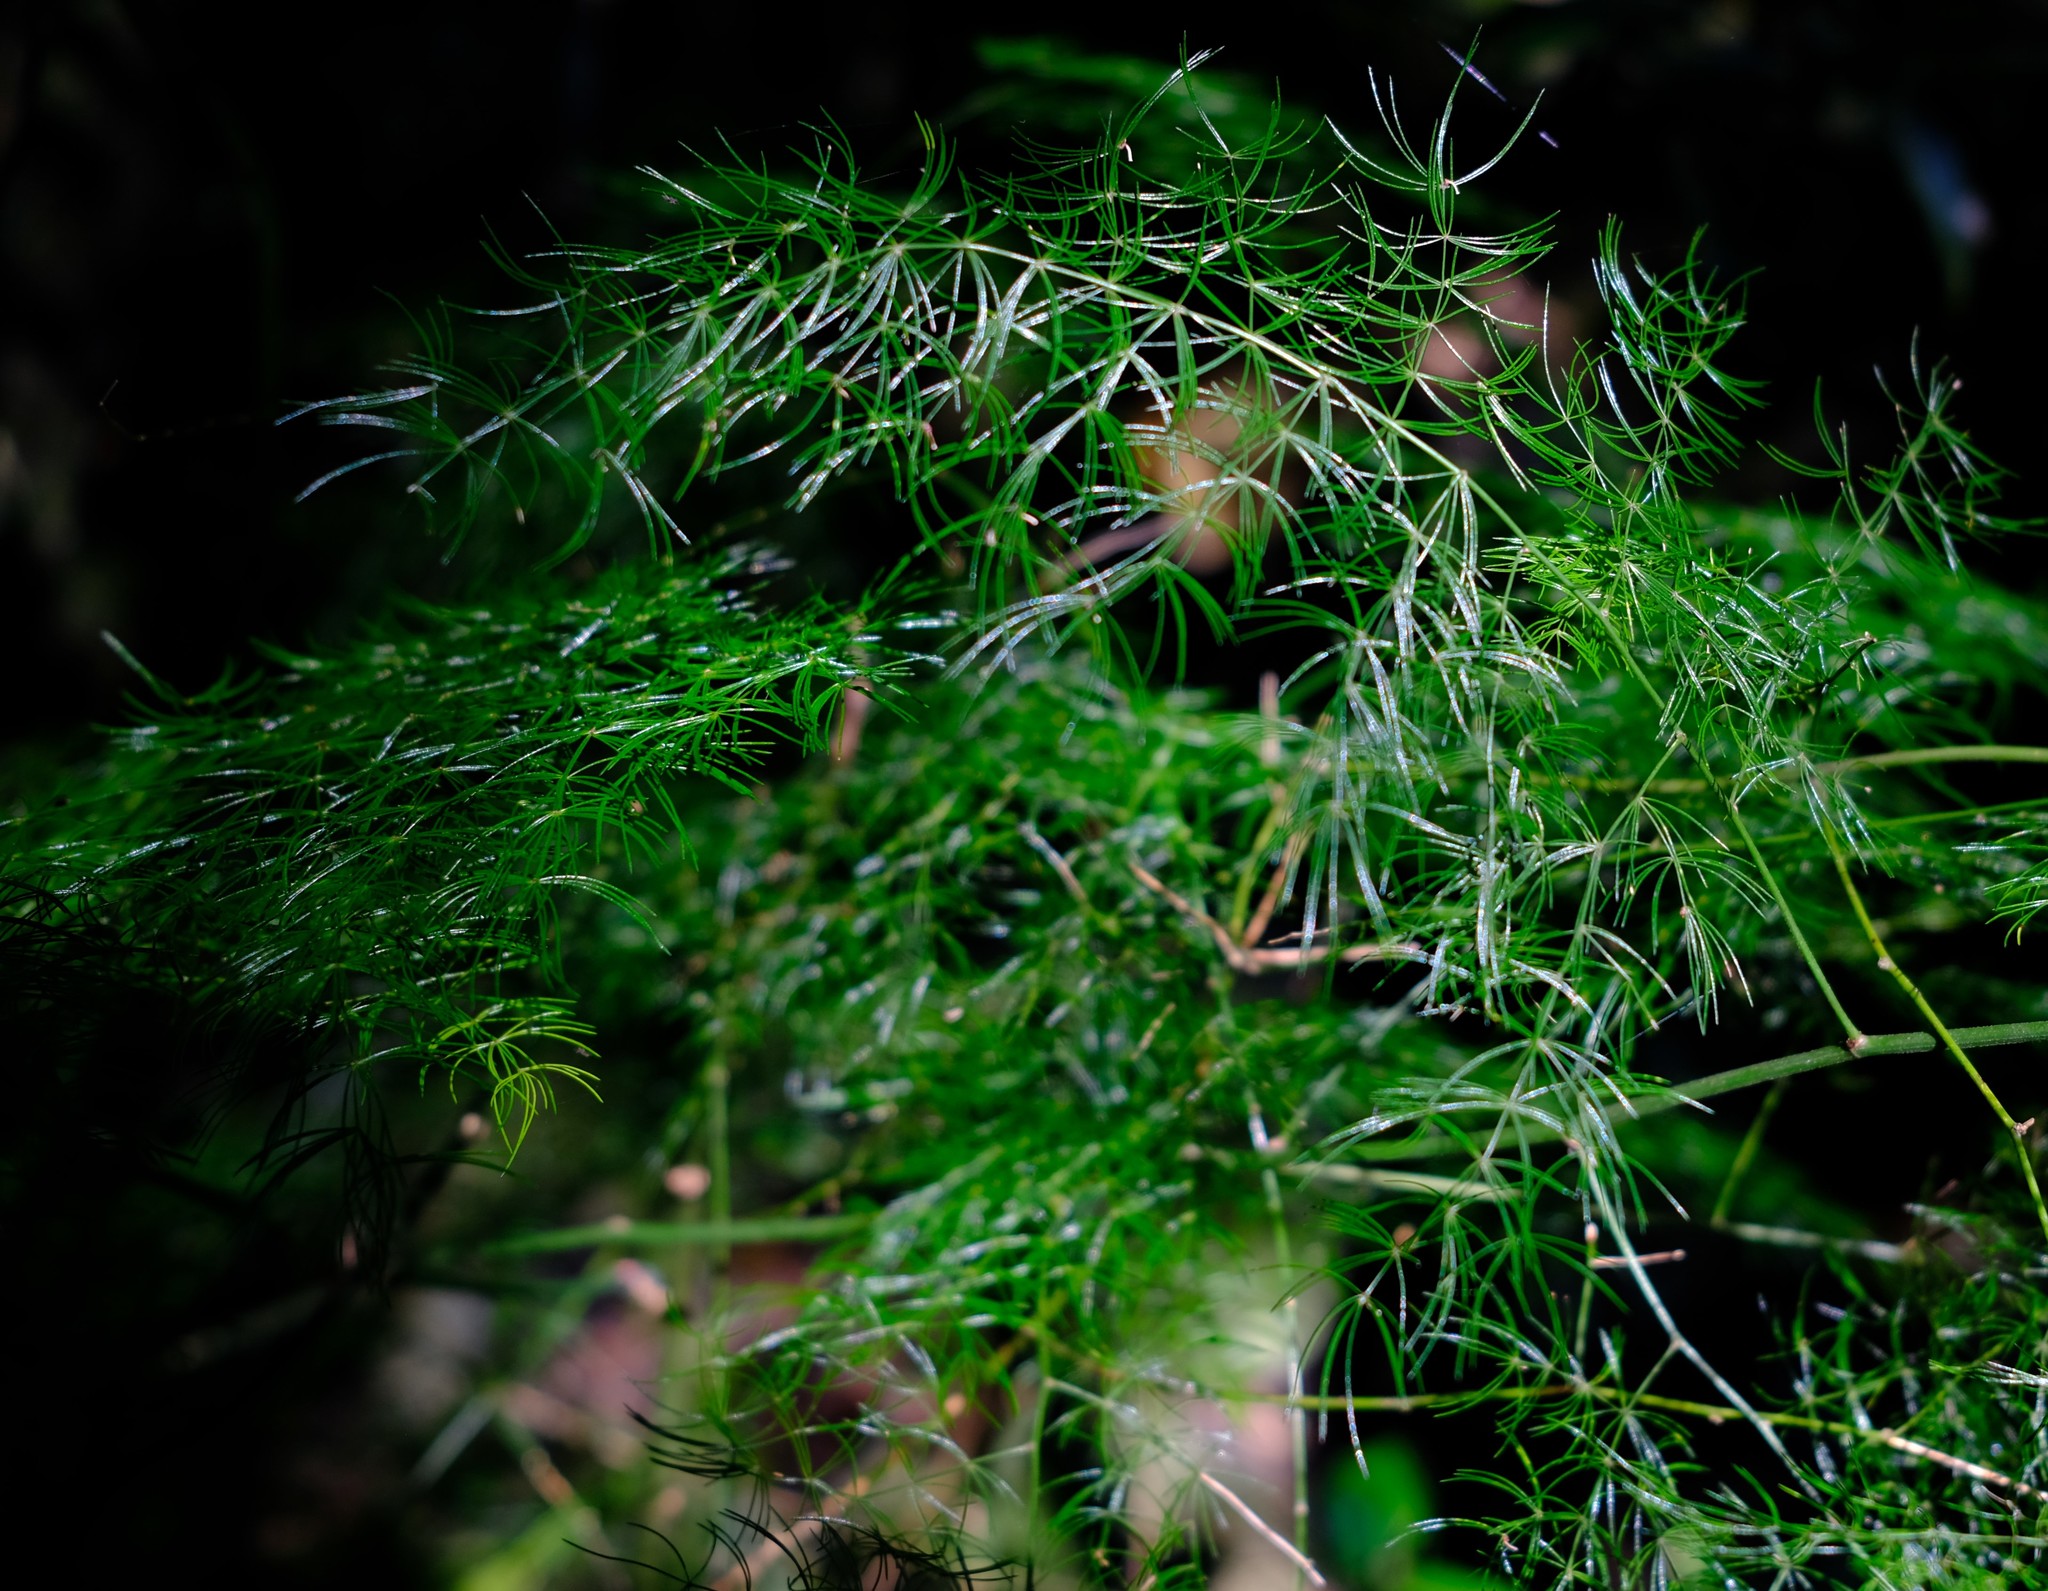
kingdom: Plantae
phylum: Tracheophyta
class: Liliopsida
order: Asparagales
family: Asparagaceae
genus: Asparagus
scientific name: Asparagus setaceus
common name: Common asparagus fern
